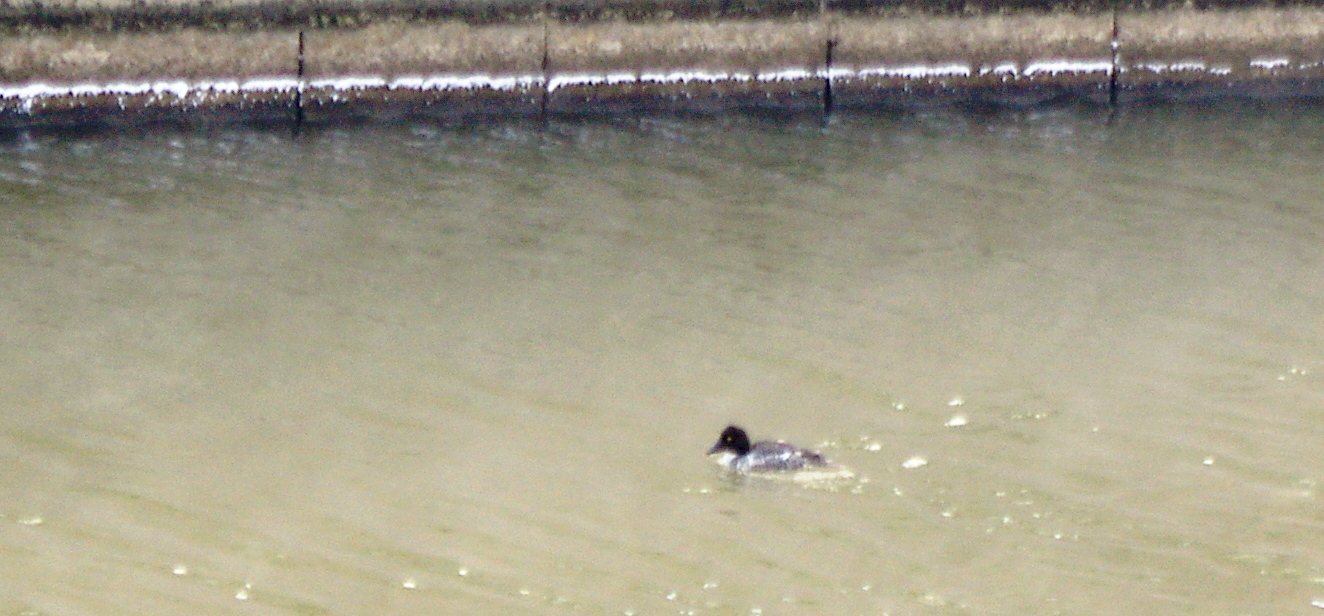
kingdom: Animalia
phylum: Chordata
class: Aves
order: Anseriformes
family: Anatidae
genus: Bucephala
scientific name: Bucephala clangula
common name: Common goldeneye
